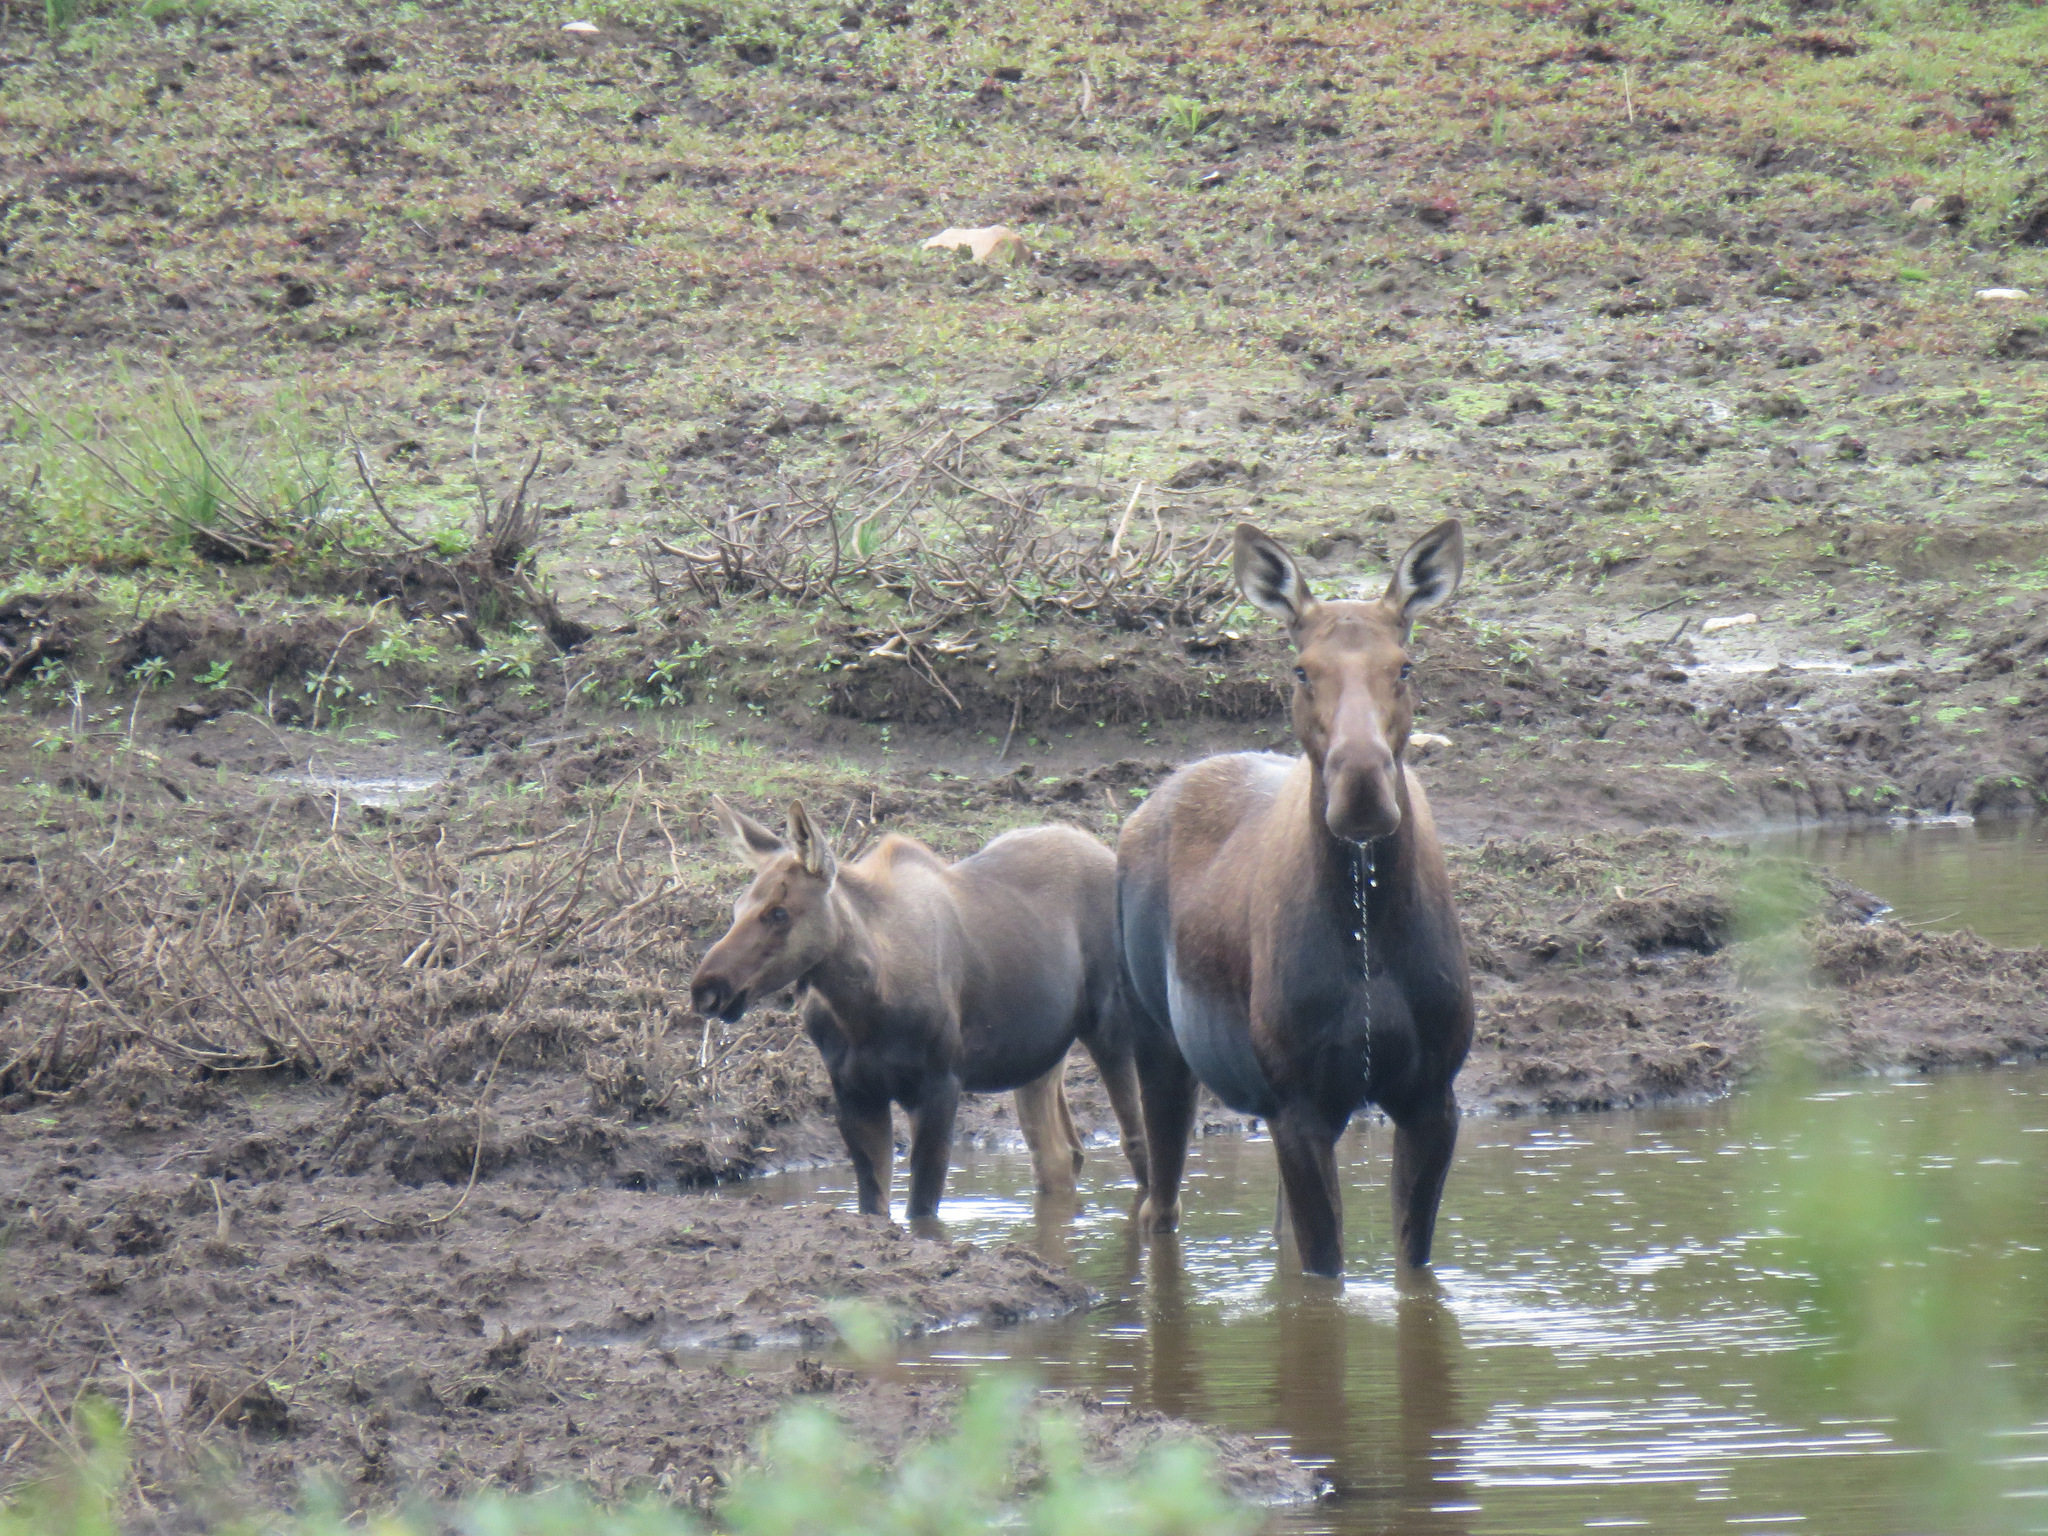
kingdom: Animalia
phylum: Chordata
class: Mammalia
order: Artiodactyla
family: Cervidae
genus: Alces
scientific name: Alces alces
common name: Moose
